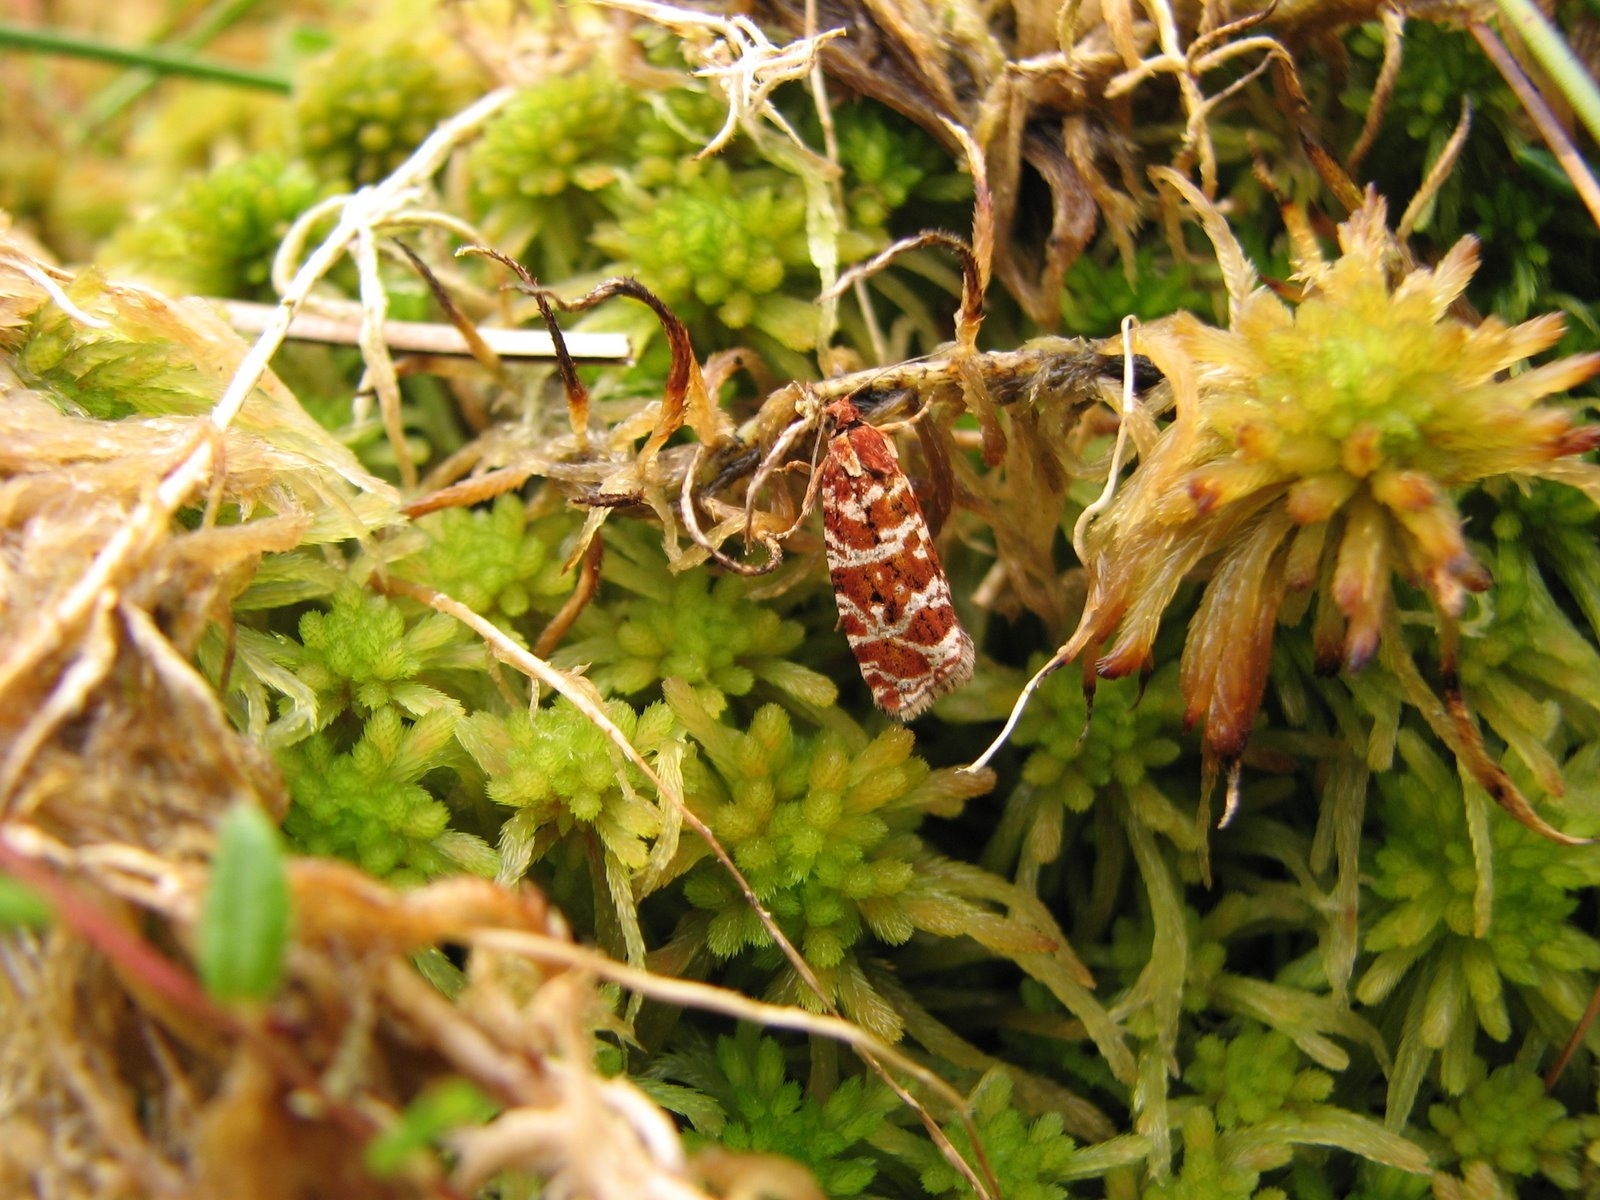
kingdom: Animalia
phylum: Arthropoda
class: Insecta
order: Lepidoptera
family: Tortricidae
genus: Syricoris
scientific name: Syricoris rivulana
